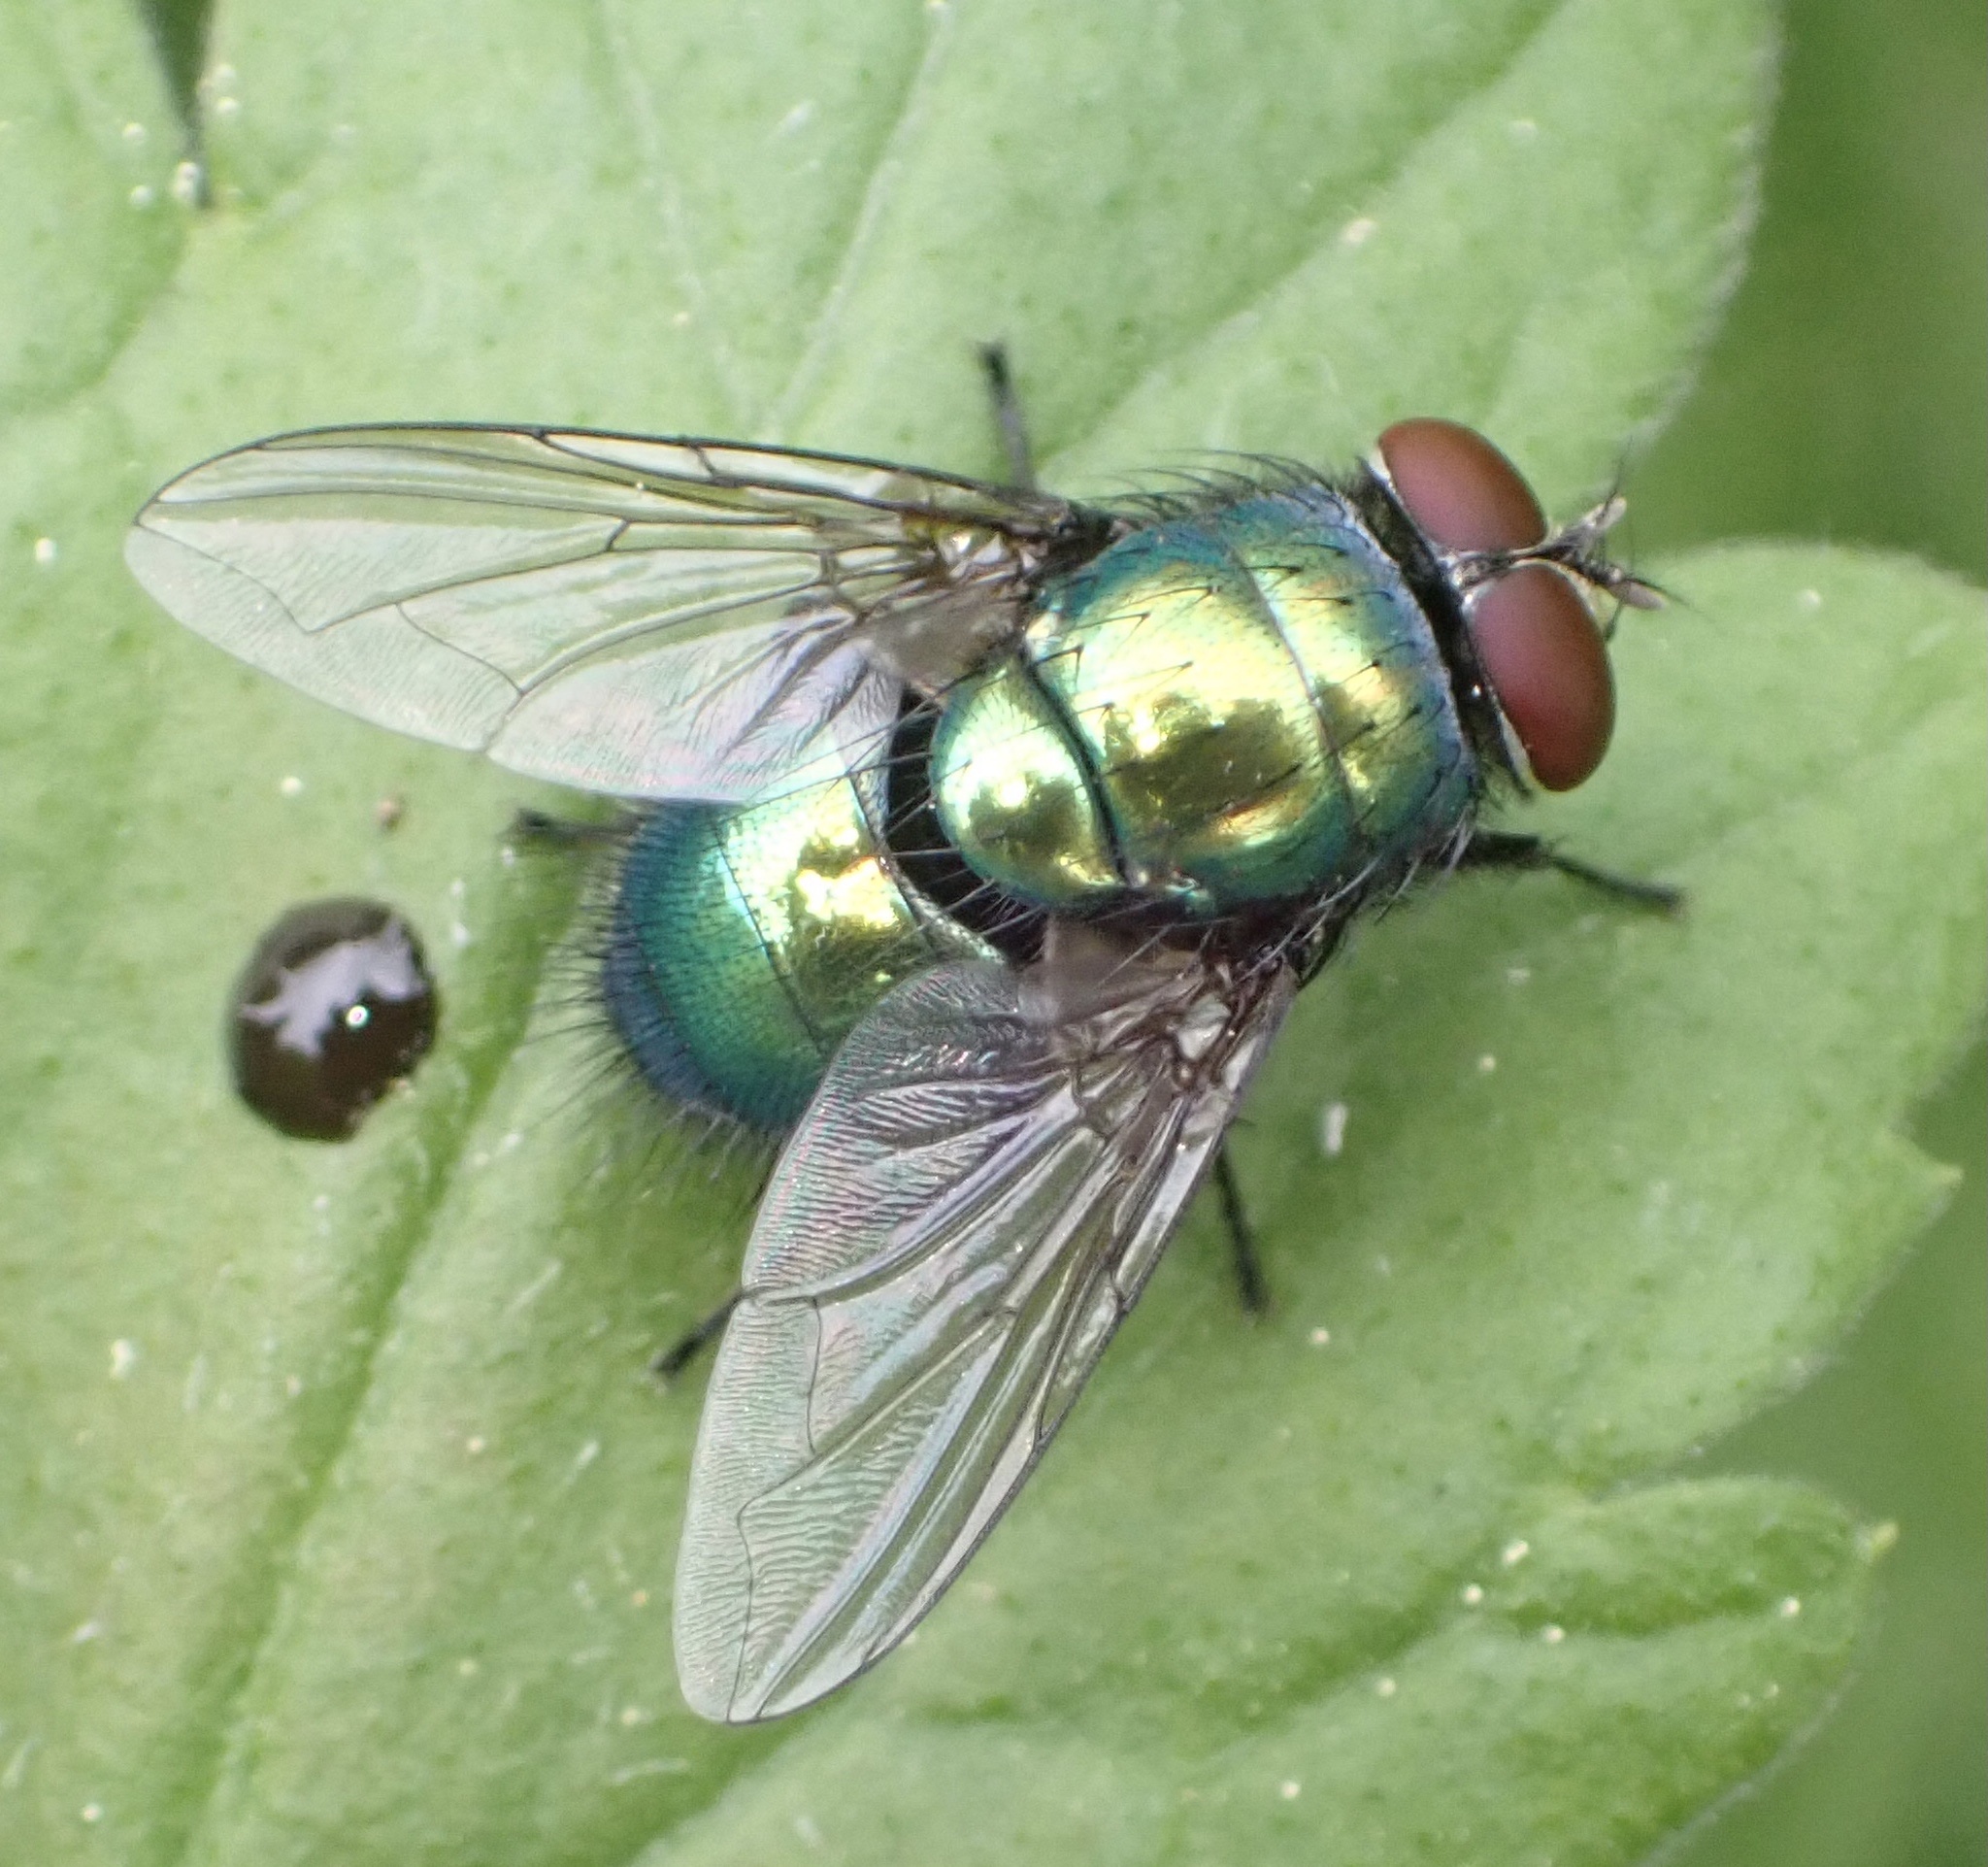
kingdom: Animalia
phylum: Arthropoda
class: Insecta
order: Diptera
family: Calliphoridae
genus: Lucilia
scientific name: Lucilia
